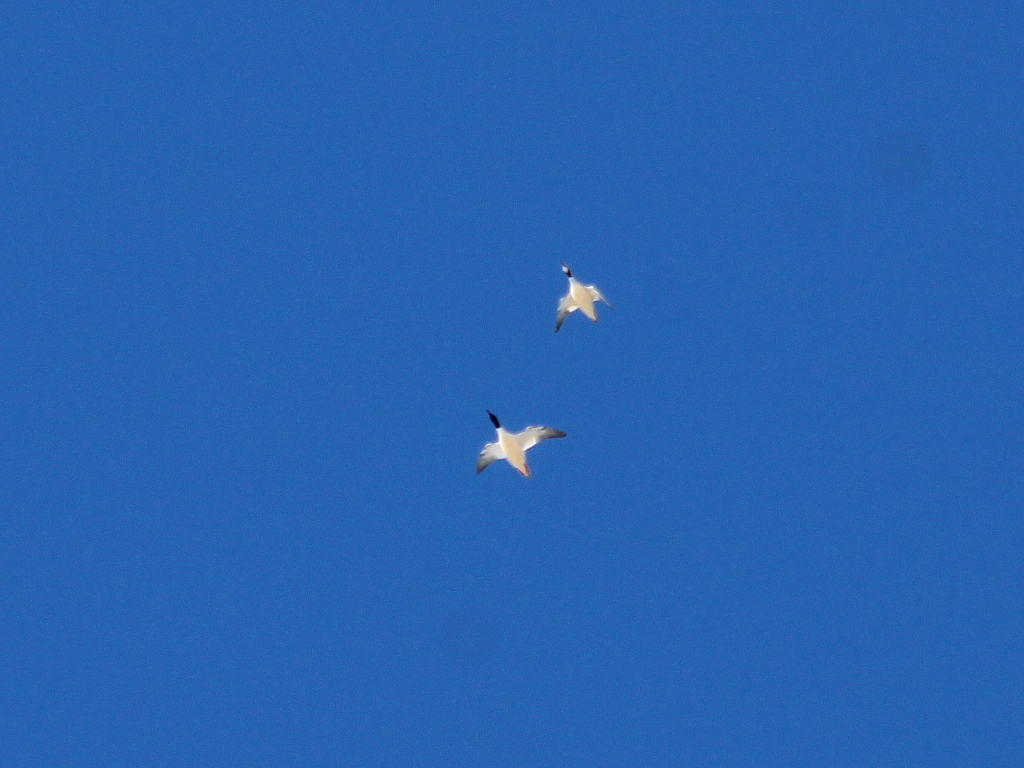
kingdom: Animalia
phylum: Chordata
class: Aves
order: Anseriformes
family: Anatidae
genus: Mergus
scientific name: Mergus merganser
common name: Common merganser
